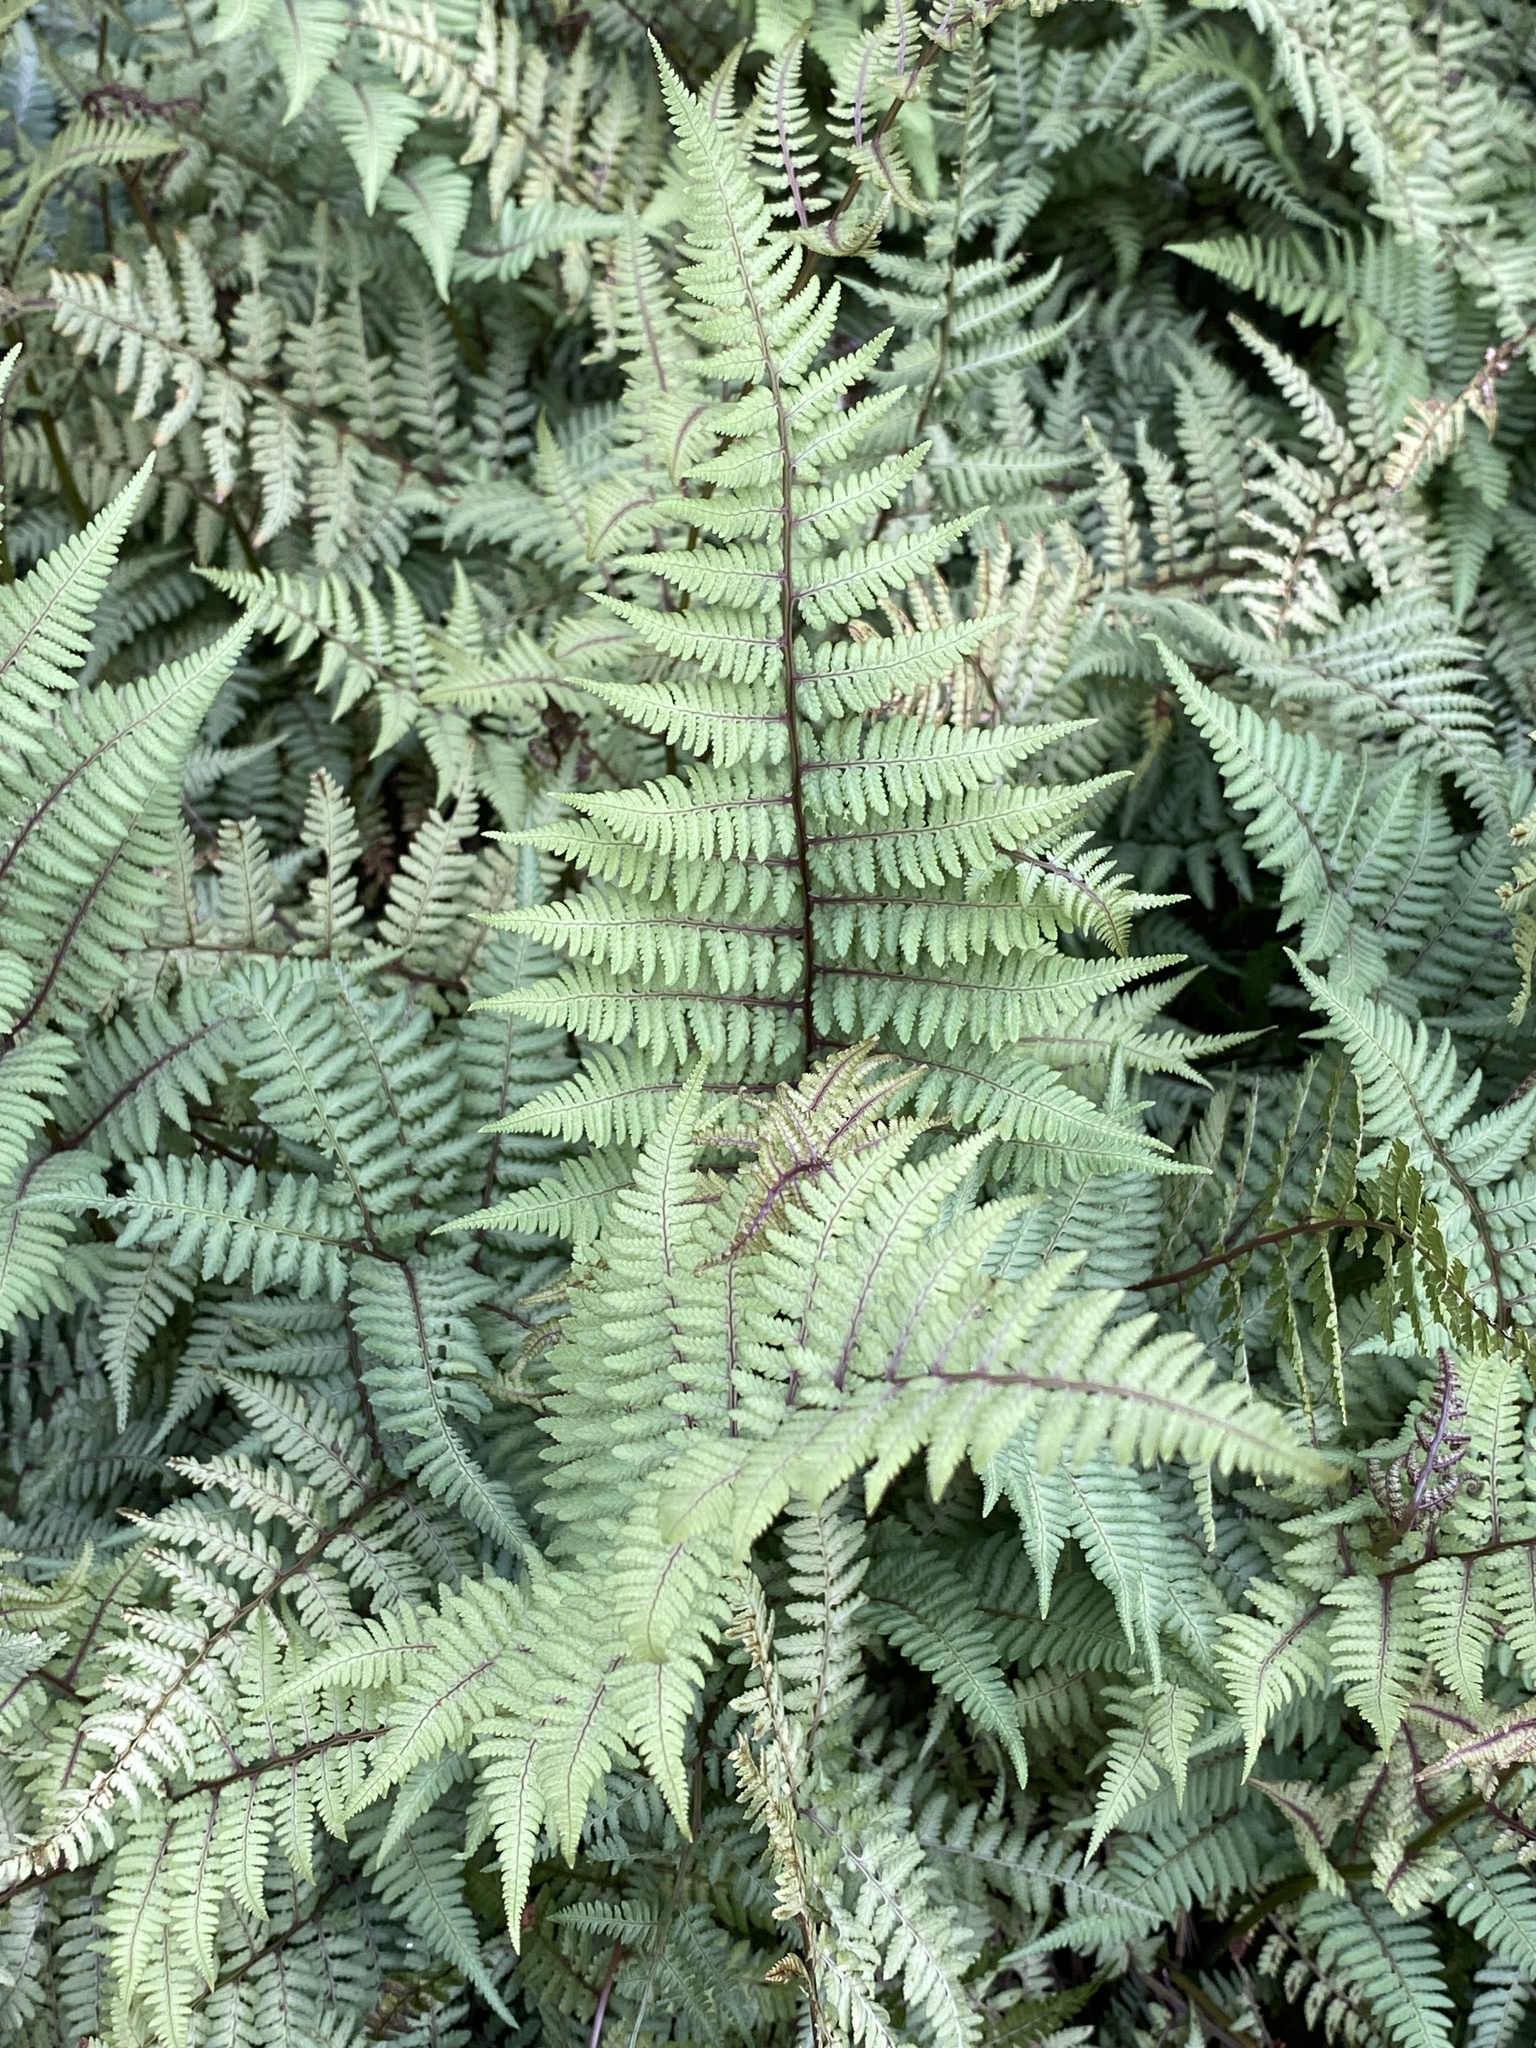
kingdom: Plantae
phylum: Tracheophyta
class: Polypodiopsida
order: Polypodiales
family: Athyriaceae
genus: Anisocampium
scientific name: Anisocampium niponicum
